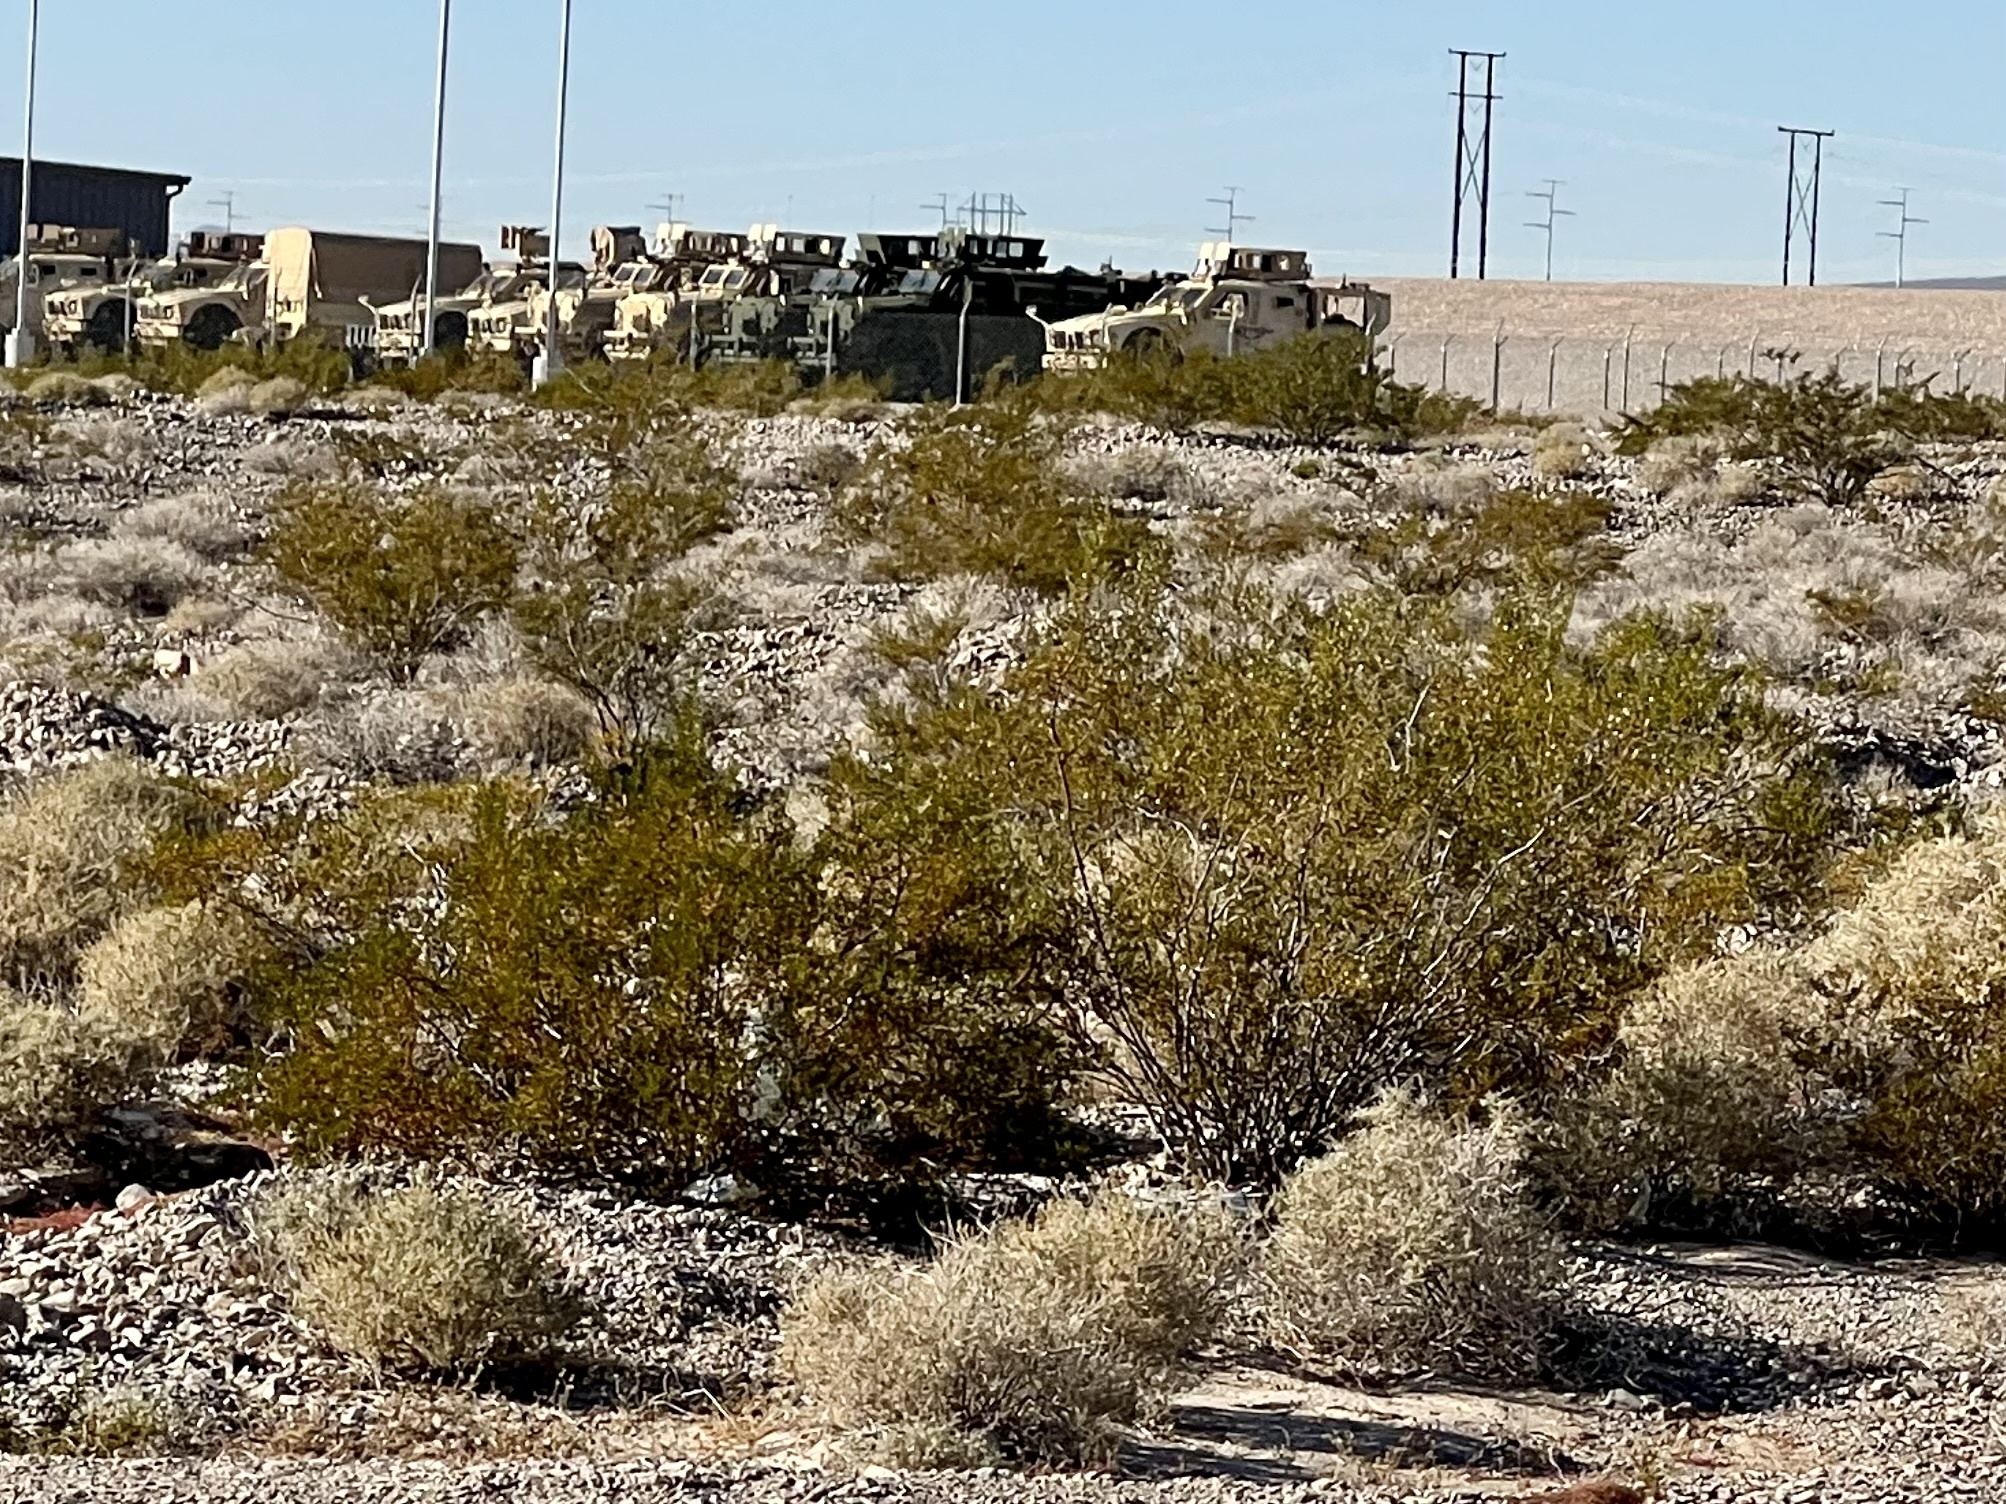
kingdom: Plantae
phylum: Tracheophyta
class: Magnoliopsida
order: Zygophyllales
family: Zygophyllaceae
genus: Larrea
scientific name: Larrea tridentata
